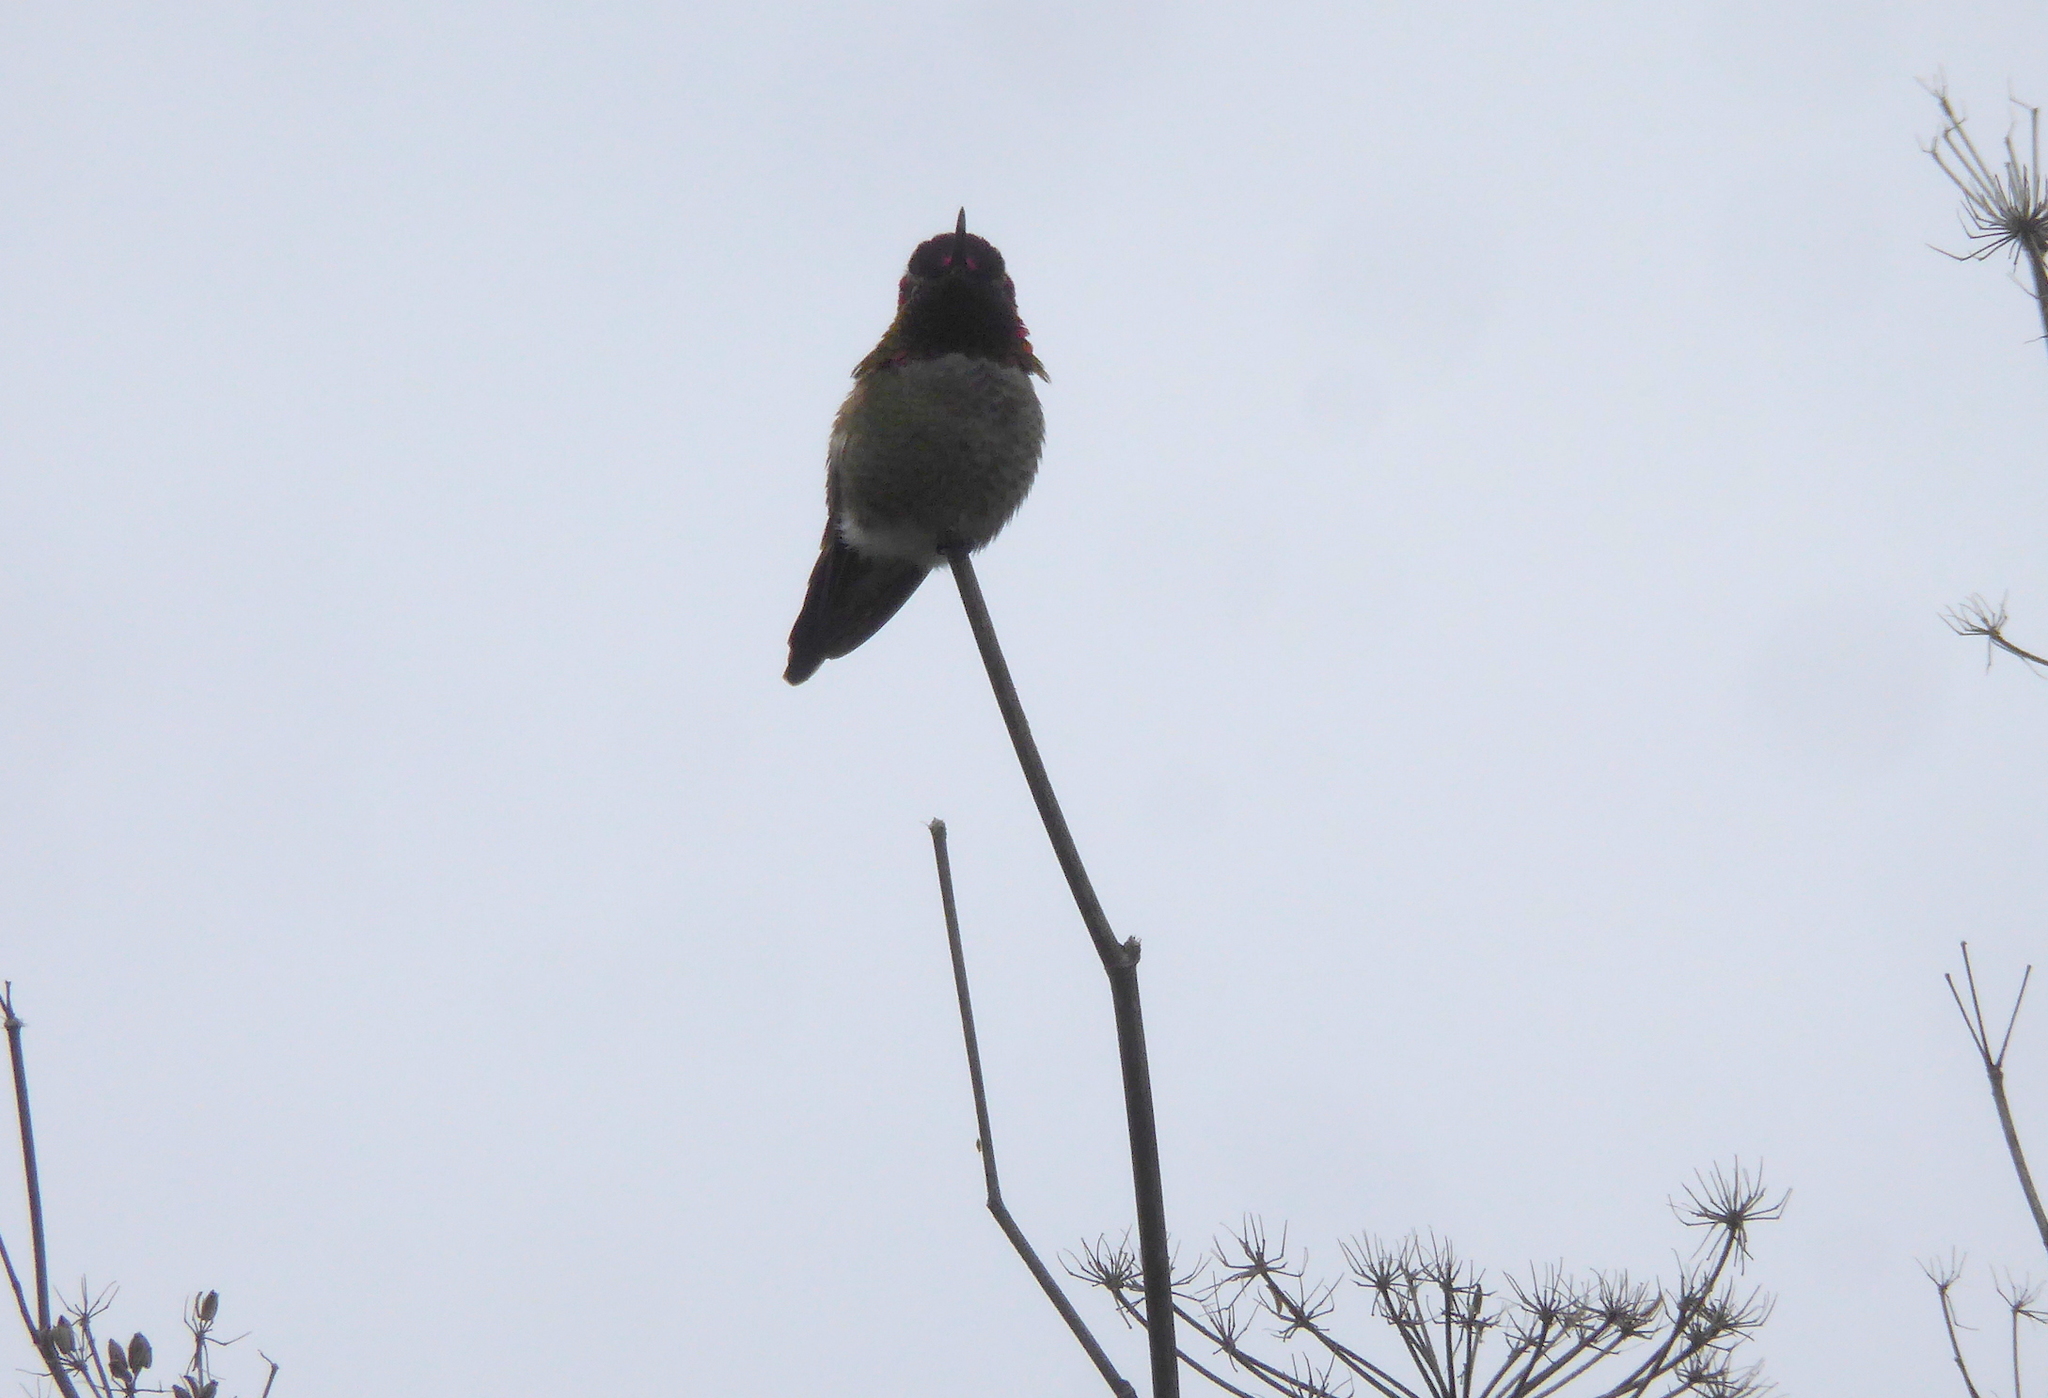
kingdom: Animalia
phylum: Chordata
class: Aves
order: Apodiformes
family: Trochilidae
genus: Calypte
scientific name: Calypte anna
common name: Anna's hummingbird
